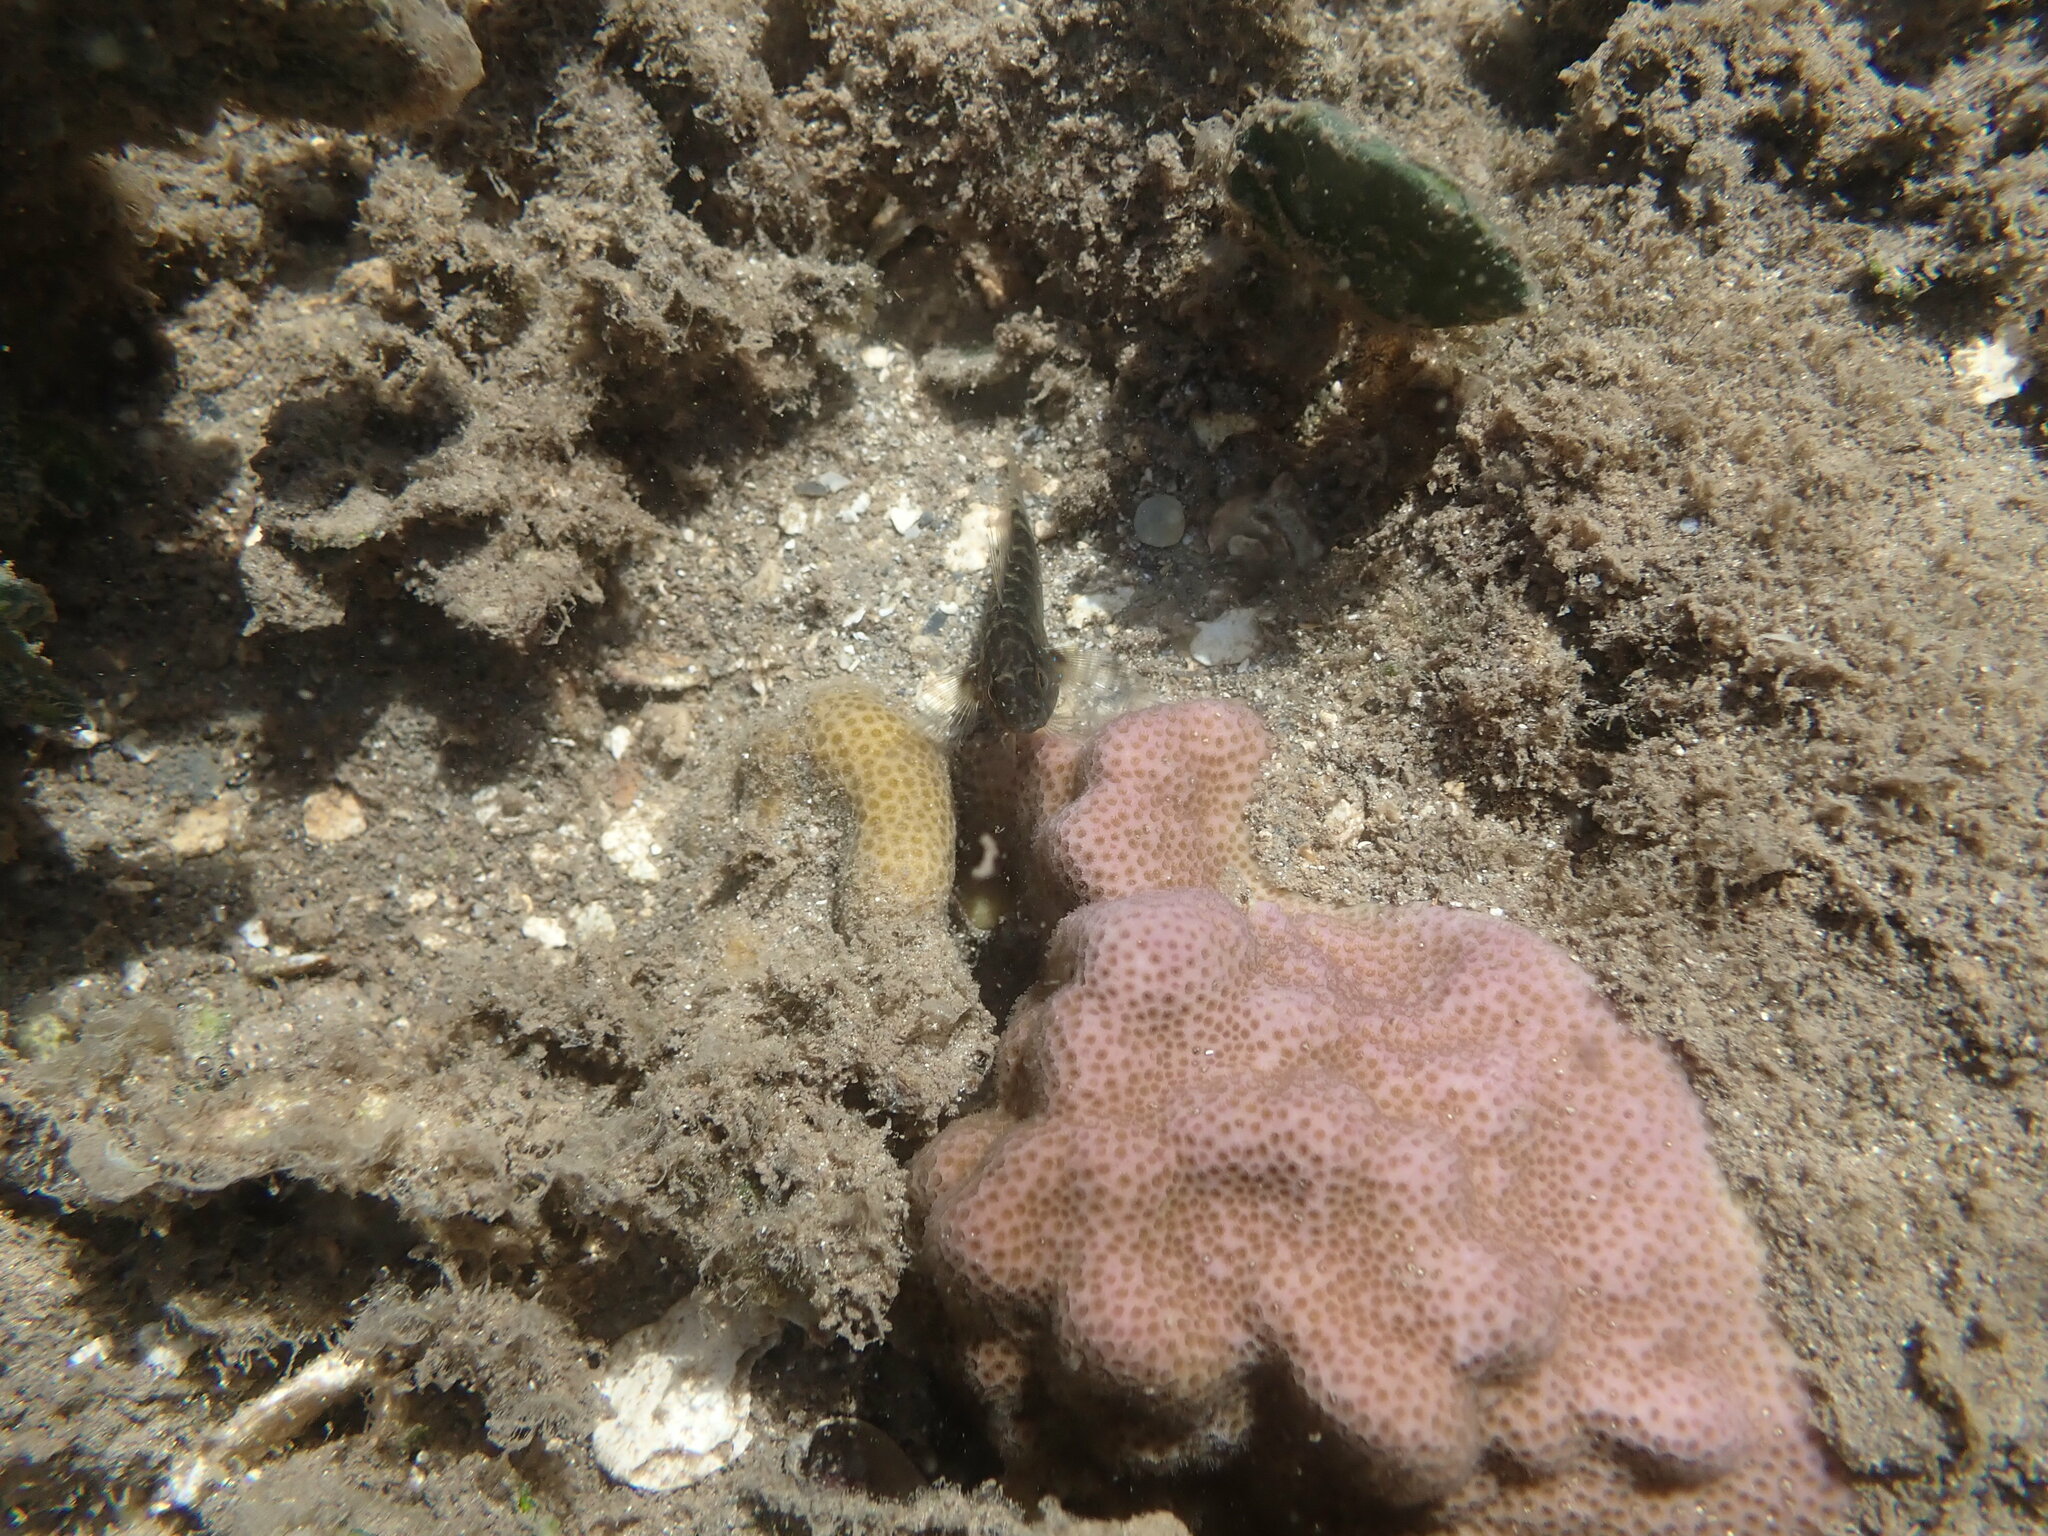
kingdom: Animalia
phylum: Chordata
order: Perciformes
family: Gobiidae
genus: Asterropteryx
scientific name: Asterropteryx semipunctata
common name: Starry goby
